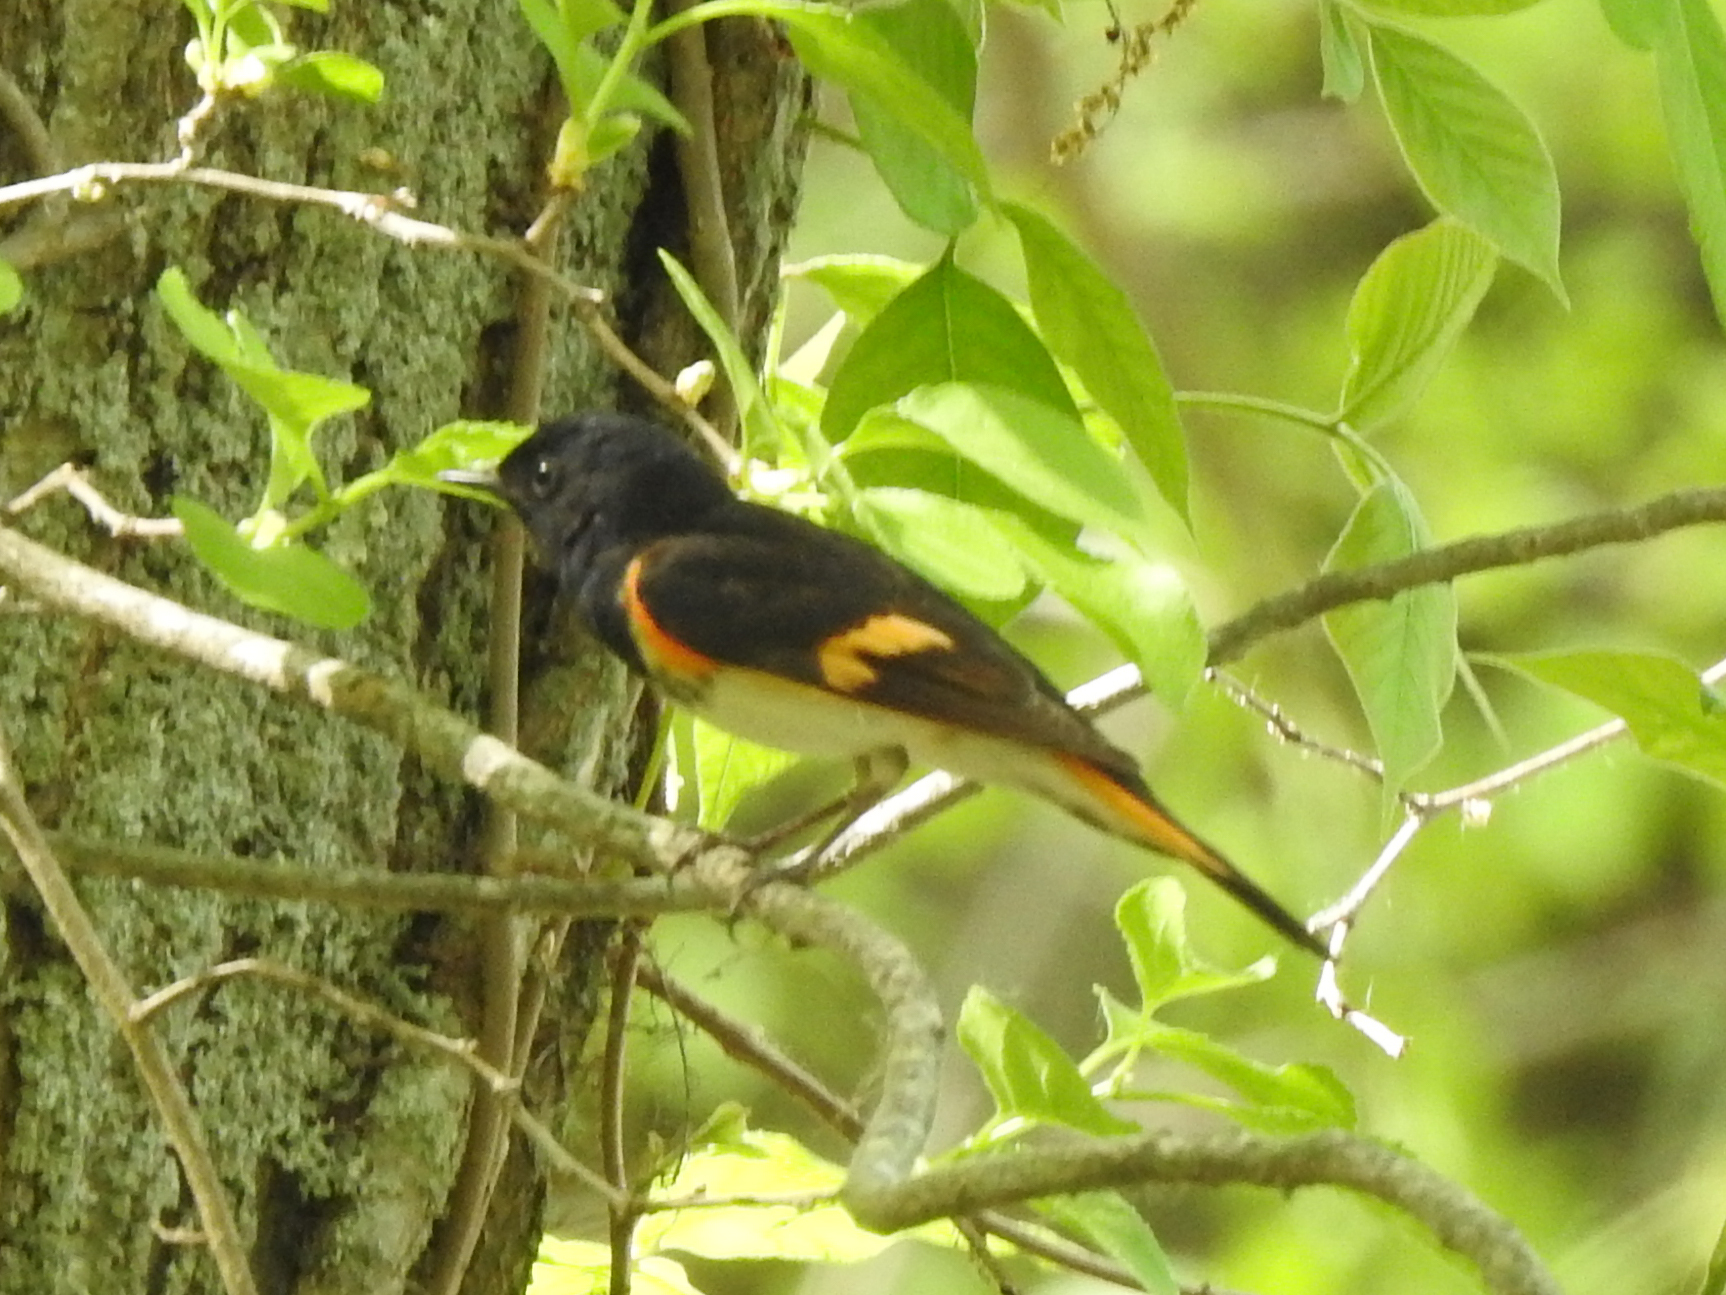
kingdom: Animalia
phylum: Chordata
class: Aves
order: Passeriformes
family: Parulidae
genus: Setophaga
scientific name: Setophaga ruticilla
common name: American redstart
